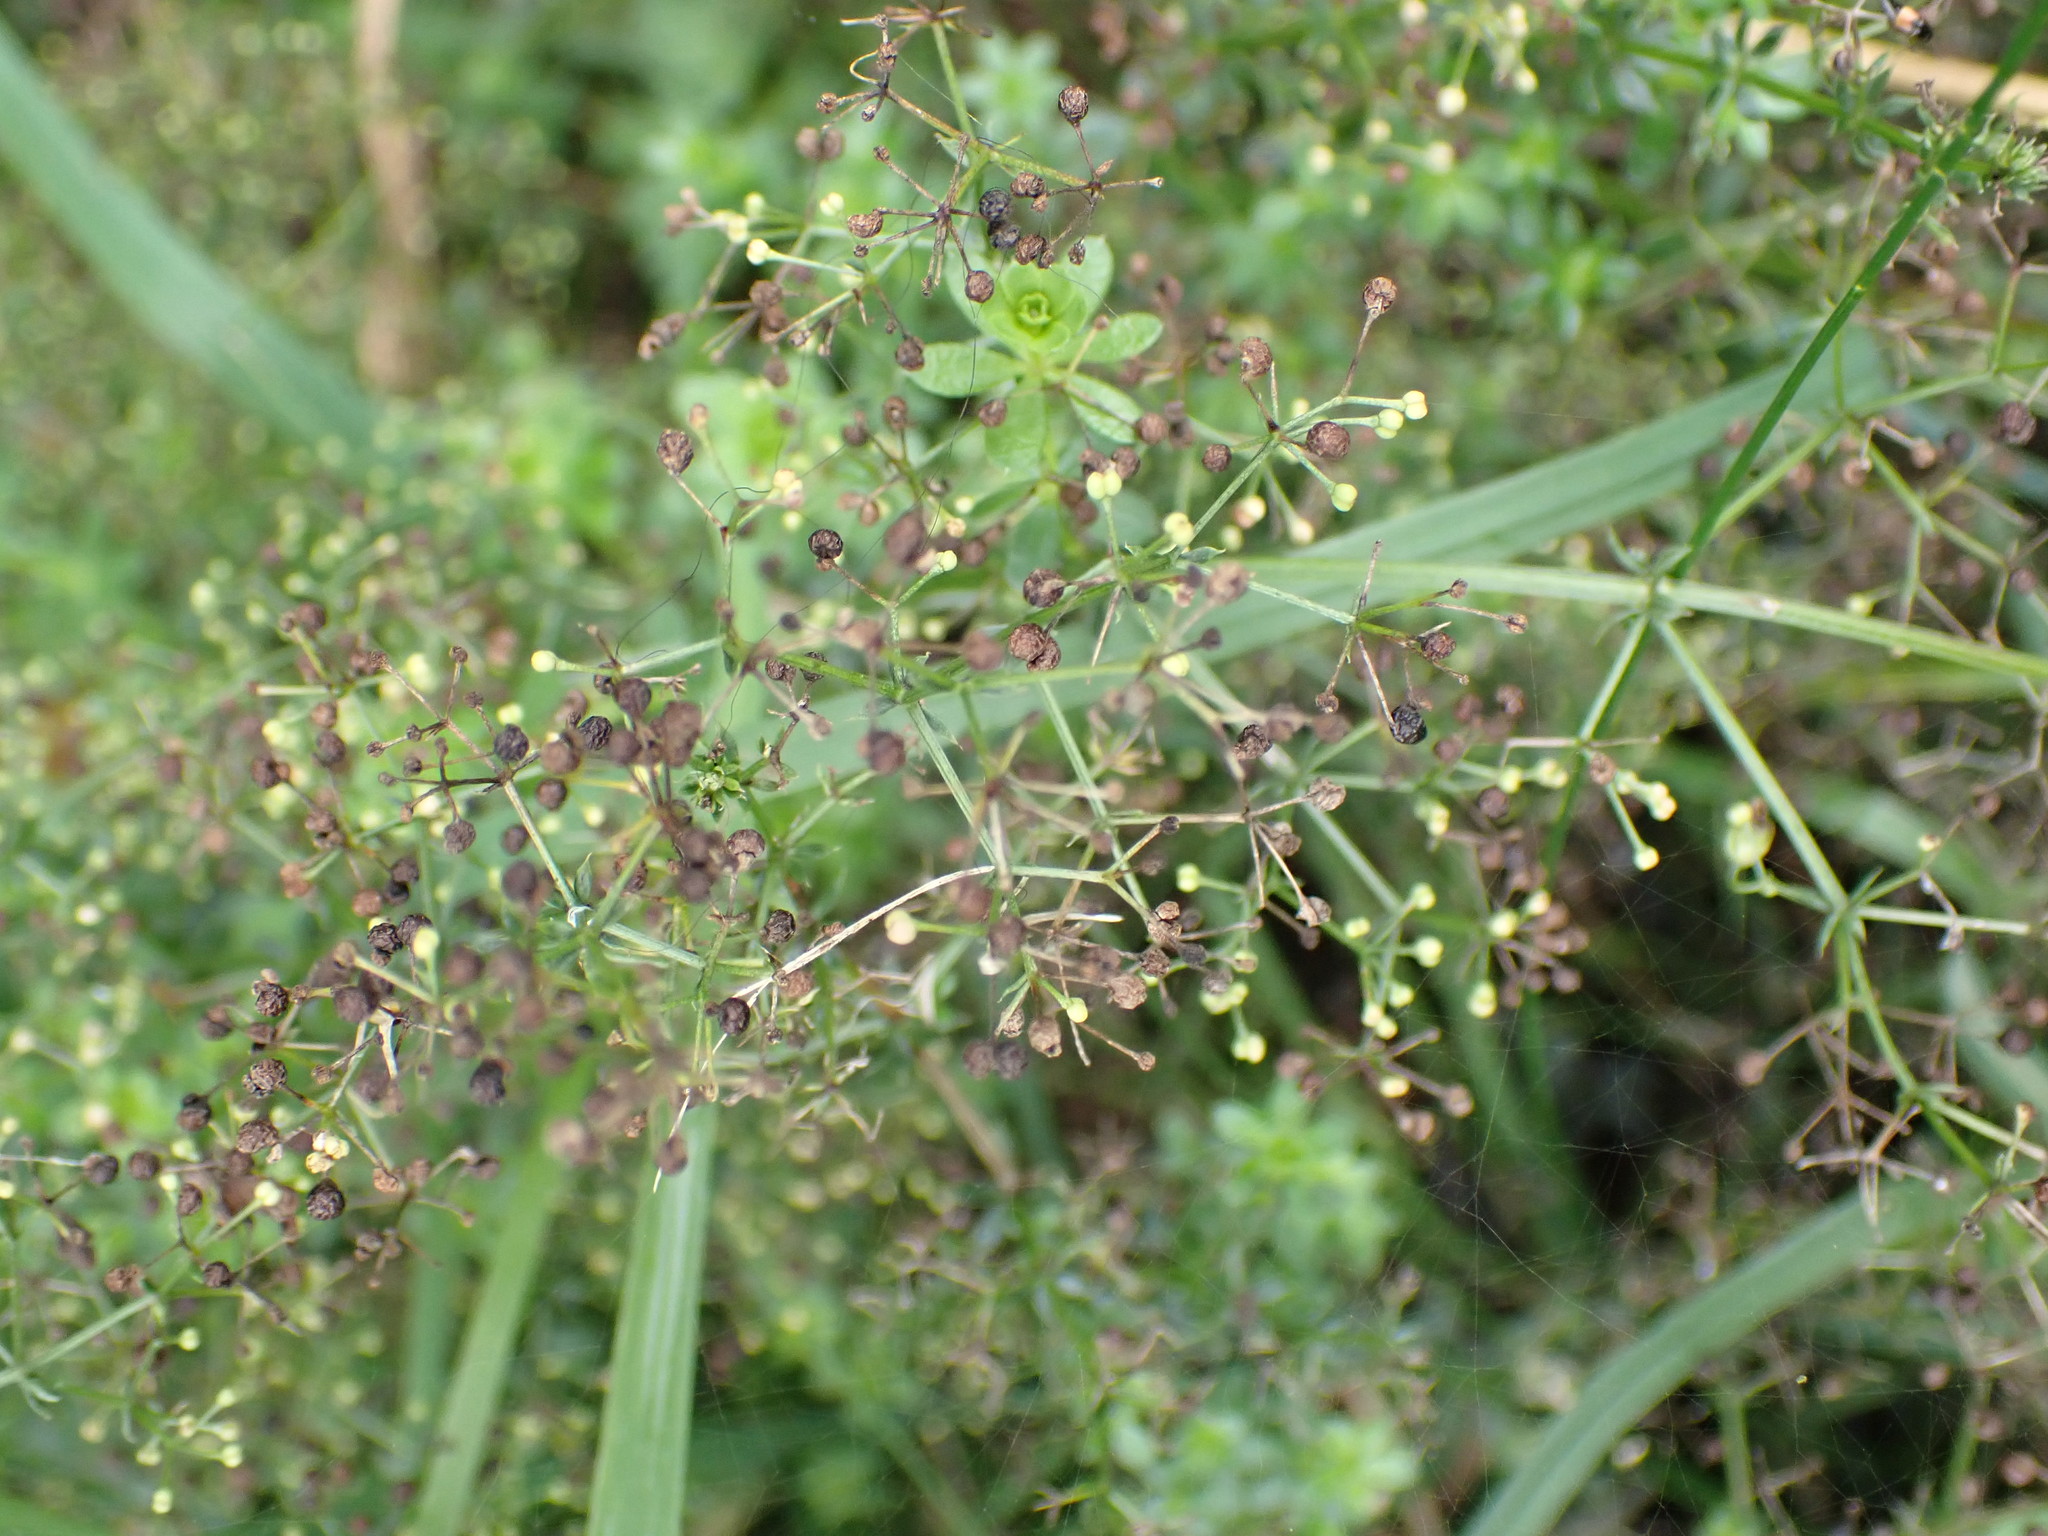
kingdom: Plantae
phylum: Tracheophyta
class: Magnoliopsida
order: Gentianales
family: Rubiaceae
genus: Galium
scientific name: Galium album
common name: White bedstraw
